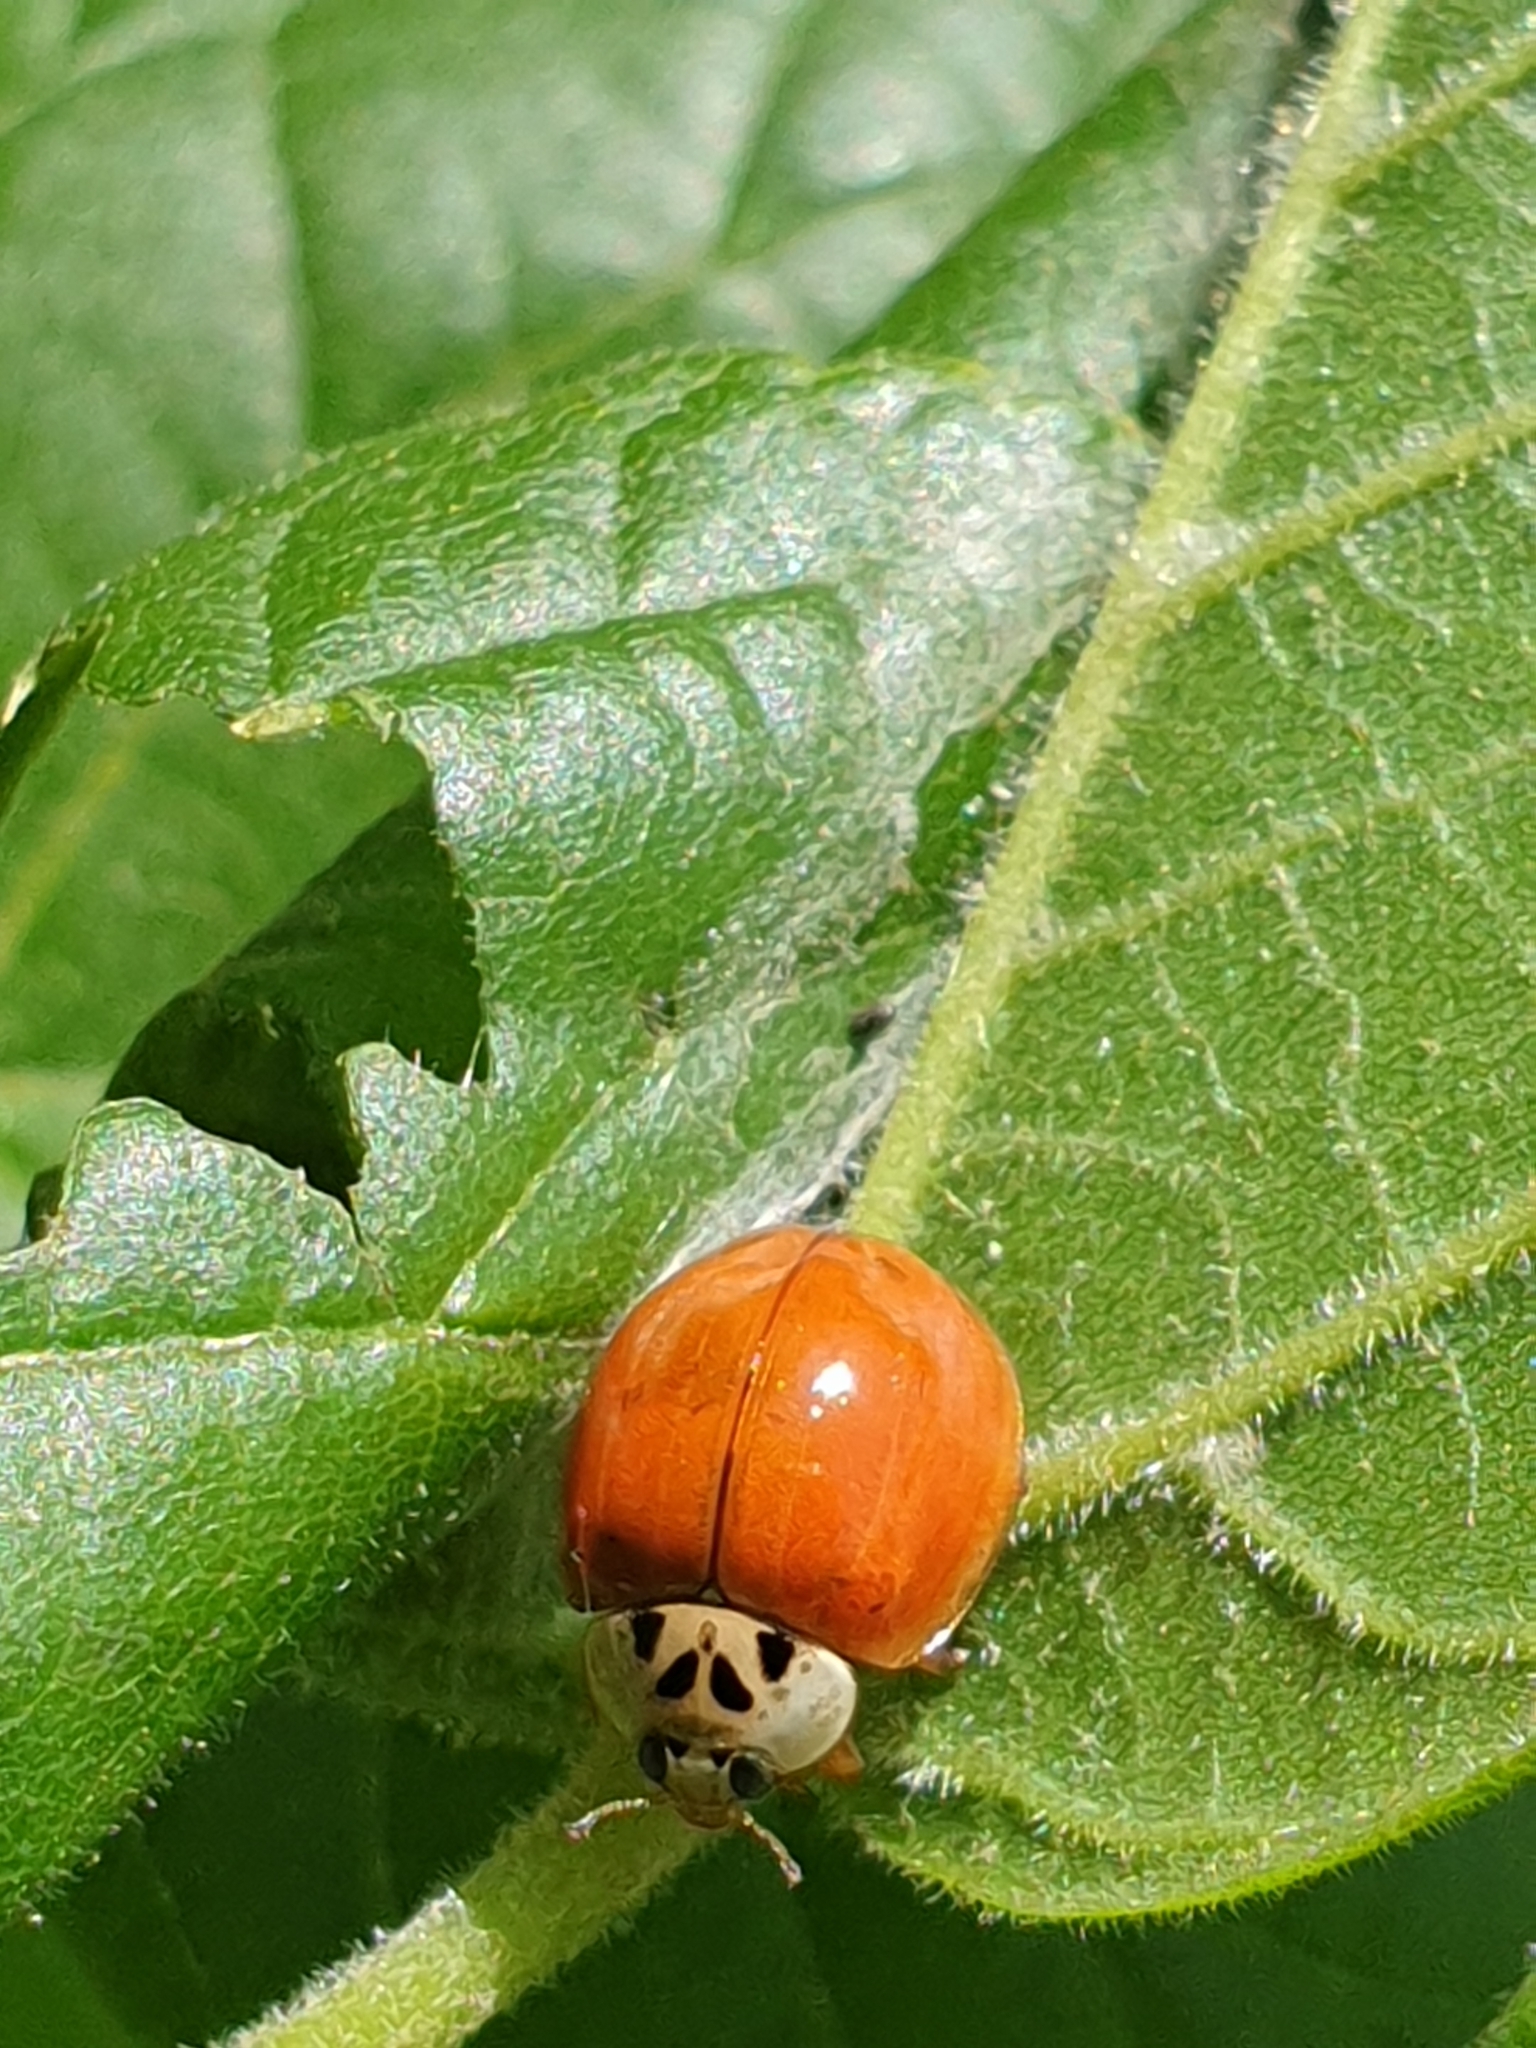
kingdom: Animalia
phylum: Arthropoda
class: Insecta
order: Coleoptera
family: Coccinellidae
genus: Harmonia
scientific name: Harmonia axyridis
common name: Harlequin ladybird
